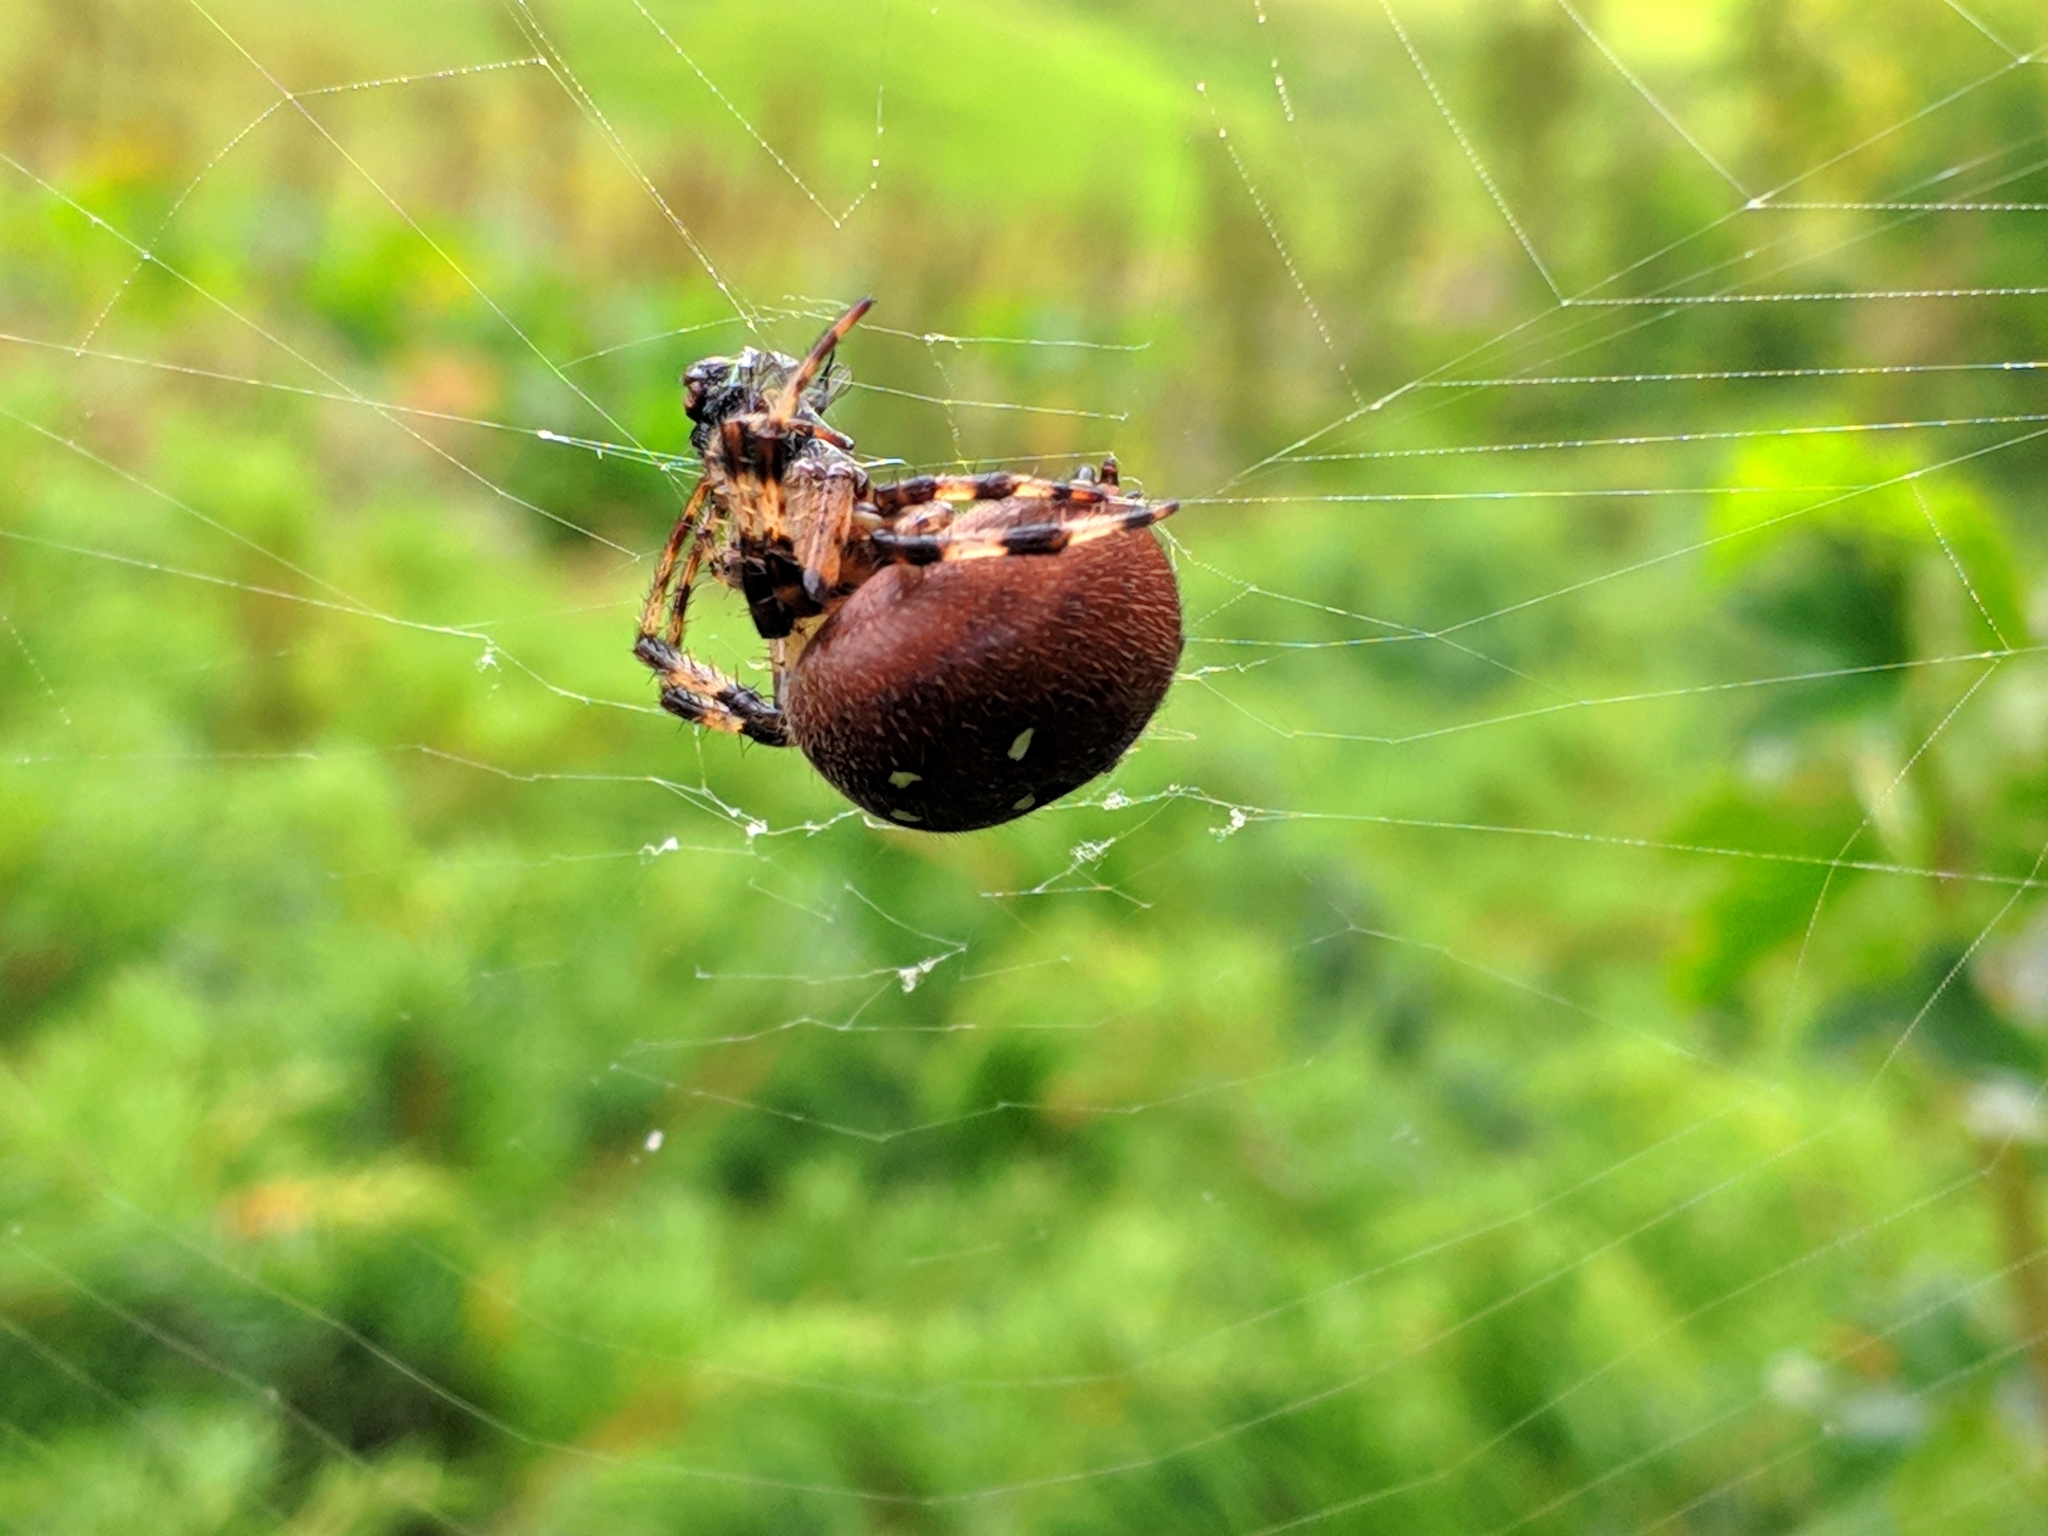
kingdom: Animalia
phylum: Arthropoda
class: Arachnida
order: Araneae
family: Araneidae
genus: Araneus
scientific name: Araneus quadratus
